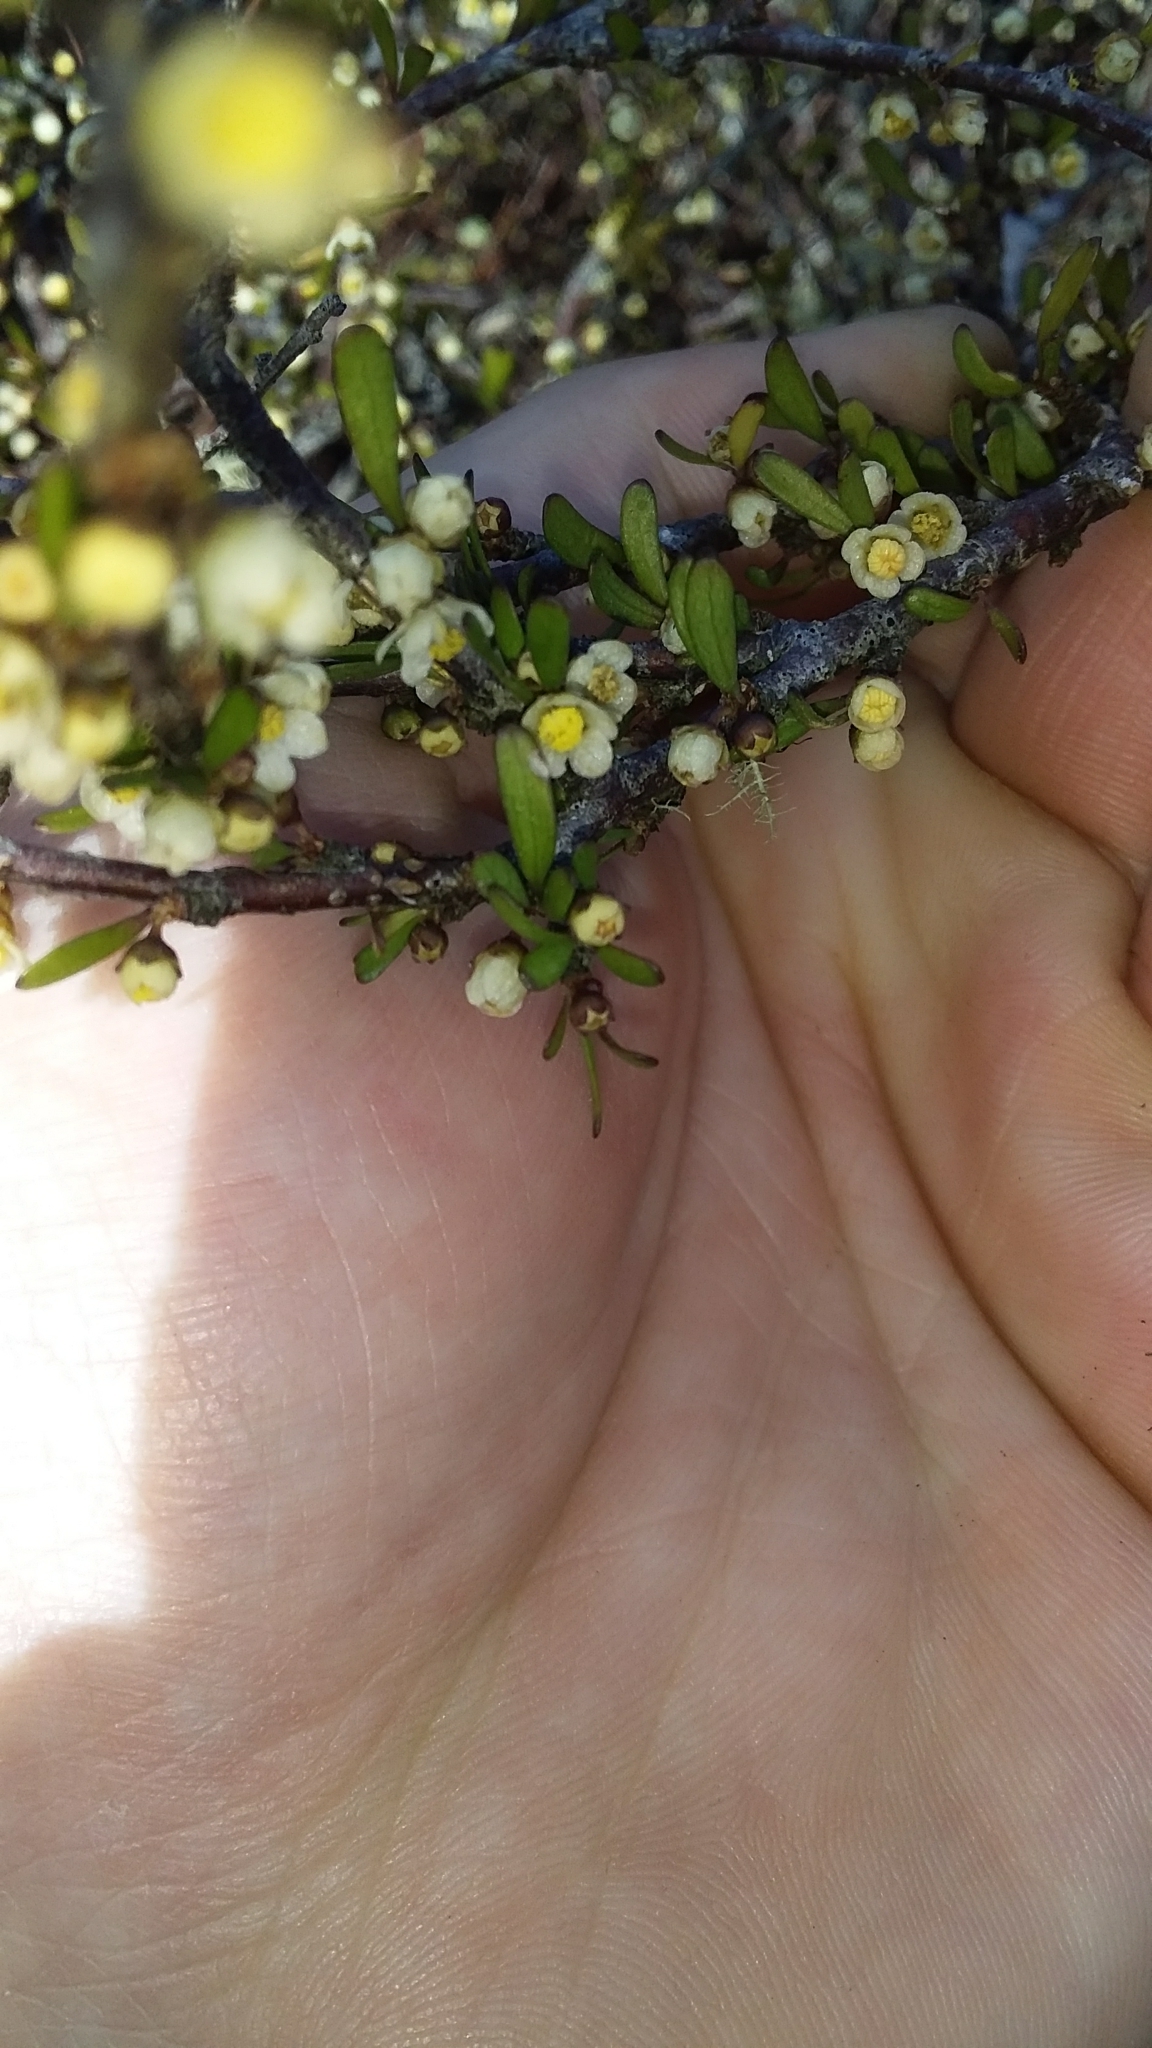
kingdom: Plantae
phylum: Tracheophyta
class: Magnoliopsida
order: Malvales
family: Malvaceae
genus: Plagianthus
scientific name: Plagianthus divaricatus
